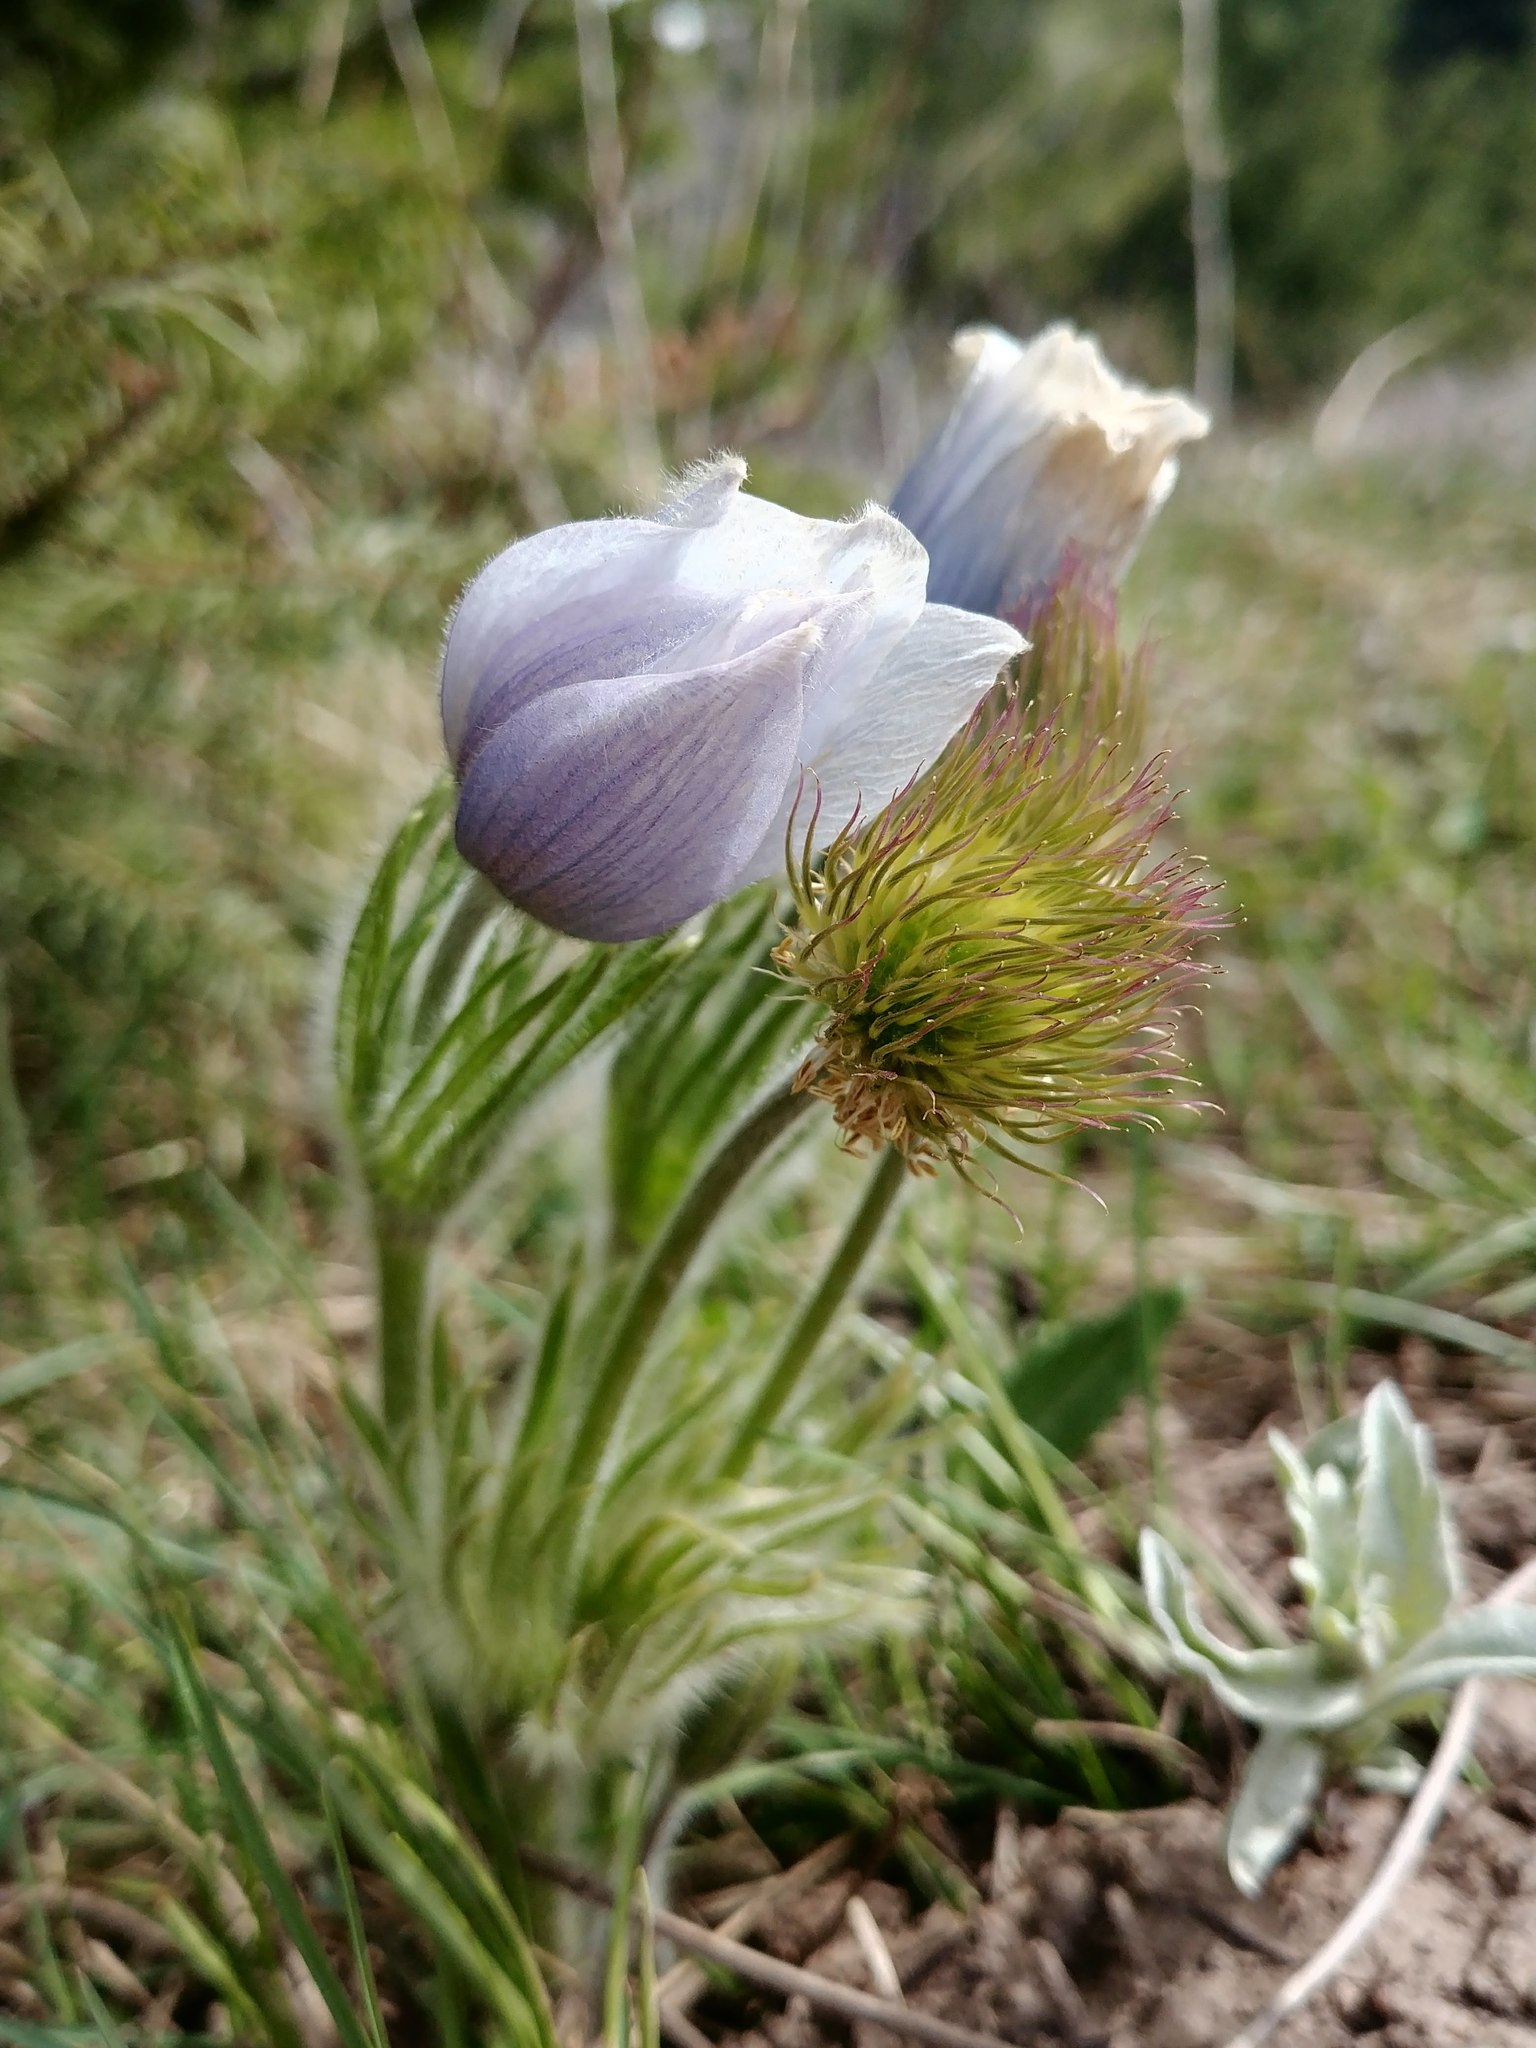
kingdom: Plantae
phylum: Tracheophyta
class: Magnoliopsida
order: Ranunculales
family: Ranunculaceae
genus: Pulsatilla
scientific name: Pulsatilla nuttalliana
